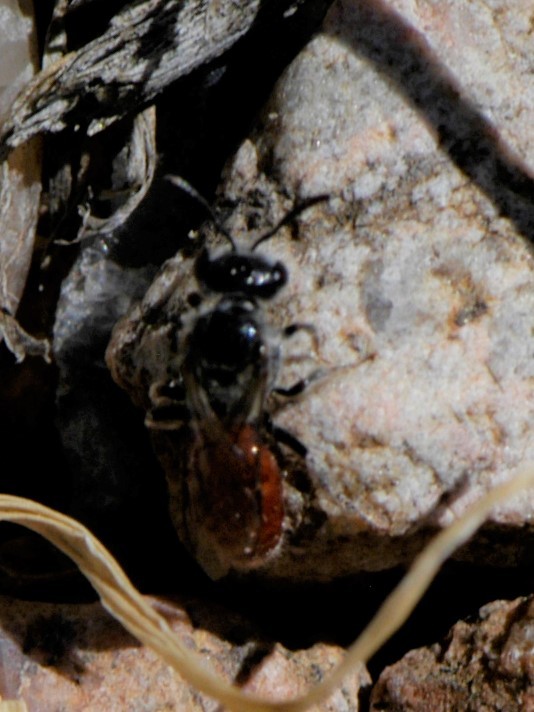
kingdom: Animalia
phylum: Arthropoda
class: Insecta
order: Hymenoptera
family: Halictidae
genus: Sphecodes
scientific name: Sphecodes
